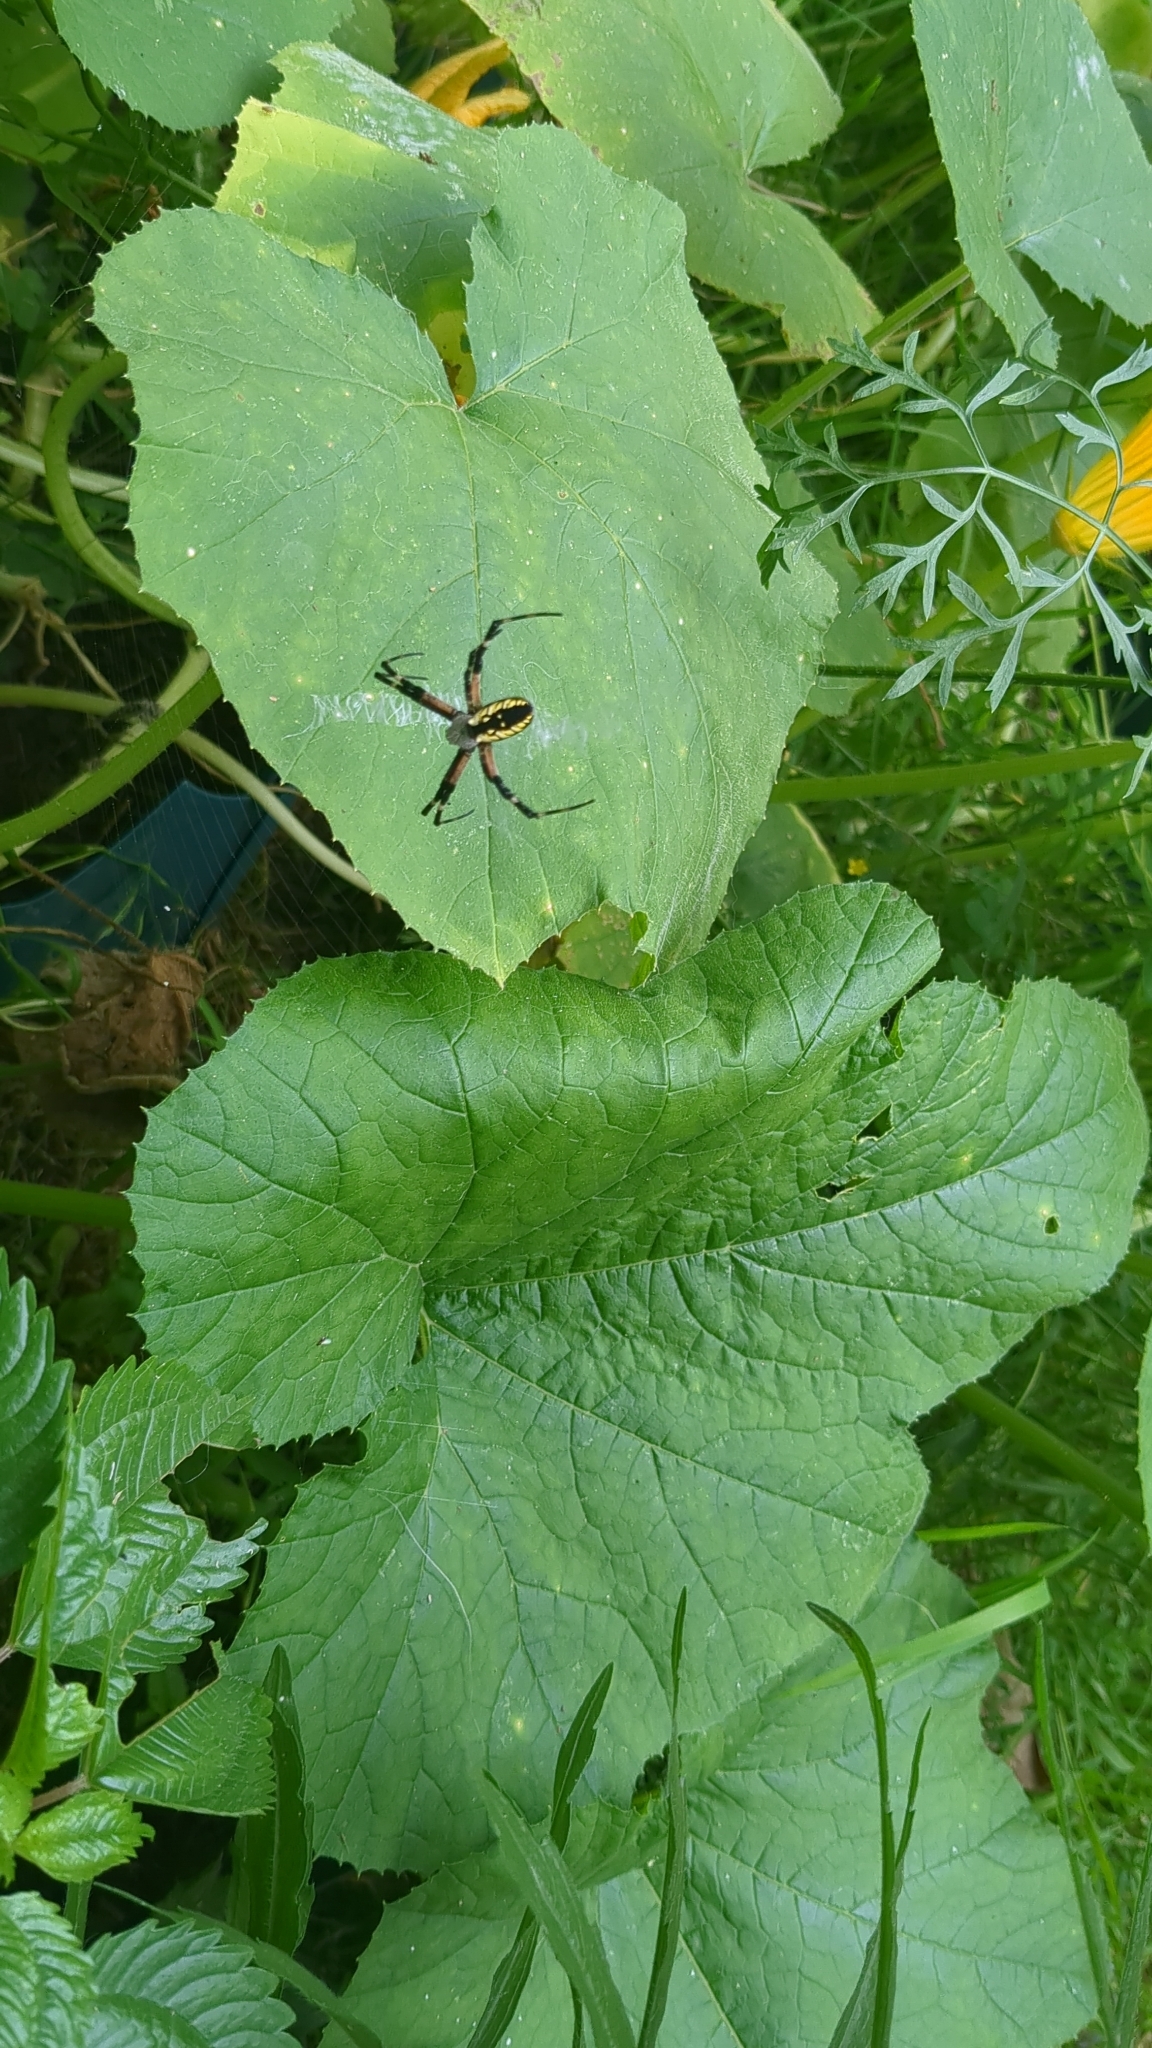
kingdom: Animalia
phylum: Arthropoda
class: Arachnida
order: Araneae
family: Araneidae
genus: Argiope
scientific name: Argiope aurantia
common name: Orb weavers
